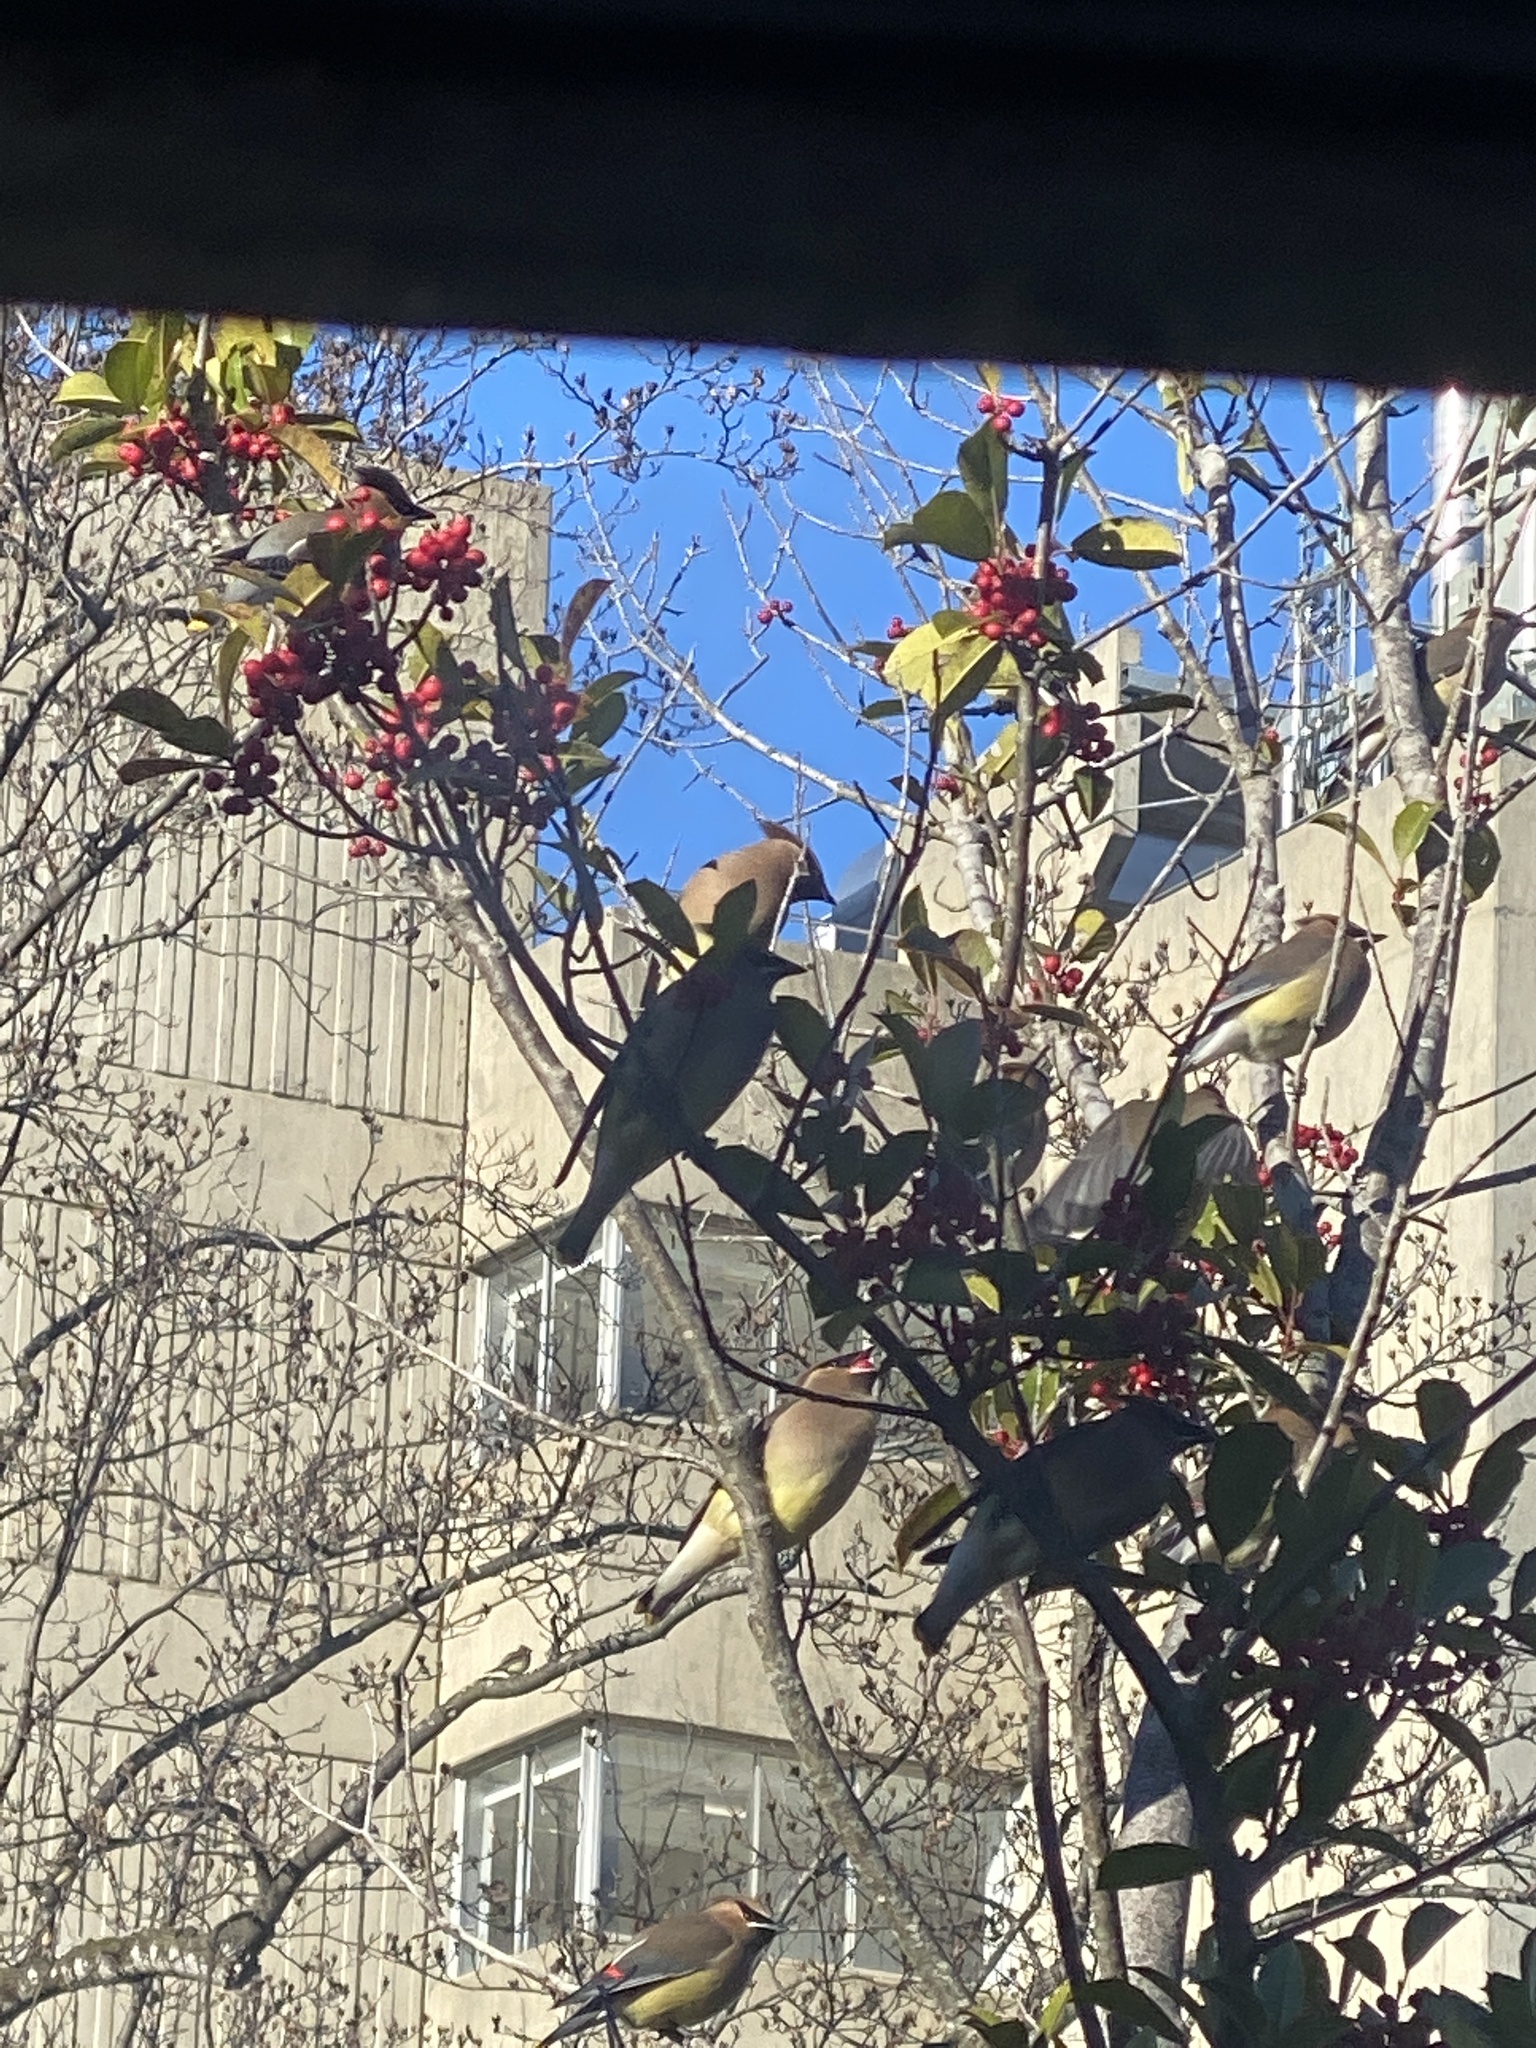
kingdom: Animalia
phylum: Chordata
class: Aves
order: Passeriformes
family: Bombycillidae
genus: Bombycilla
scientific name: Bombycilla cedrorum
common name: Cedar waxwing
